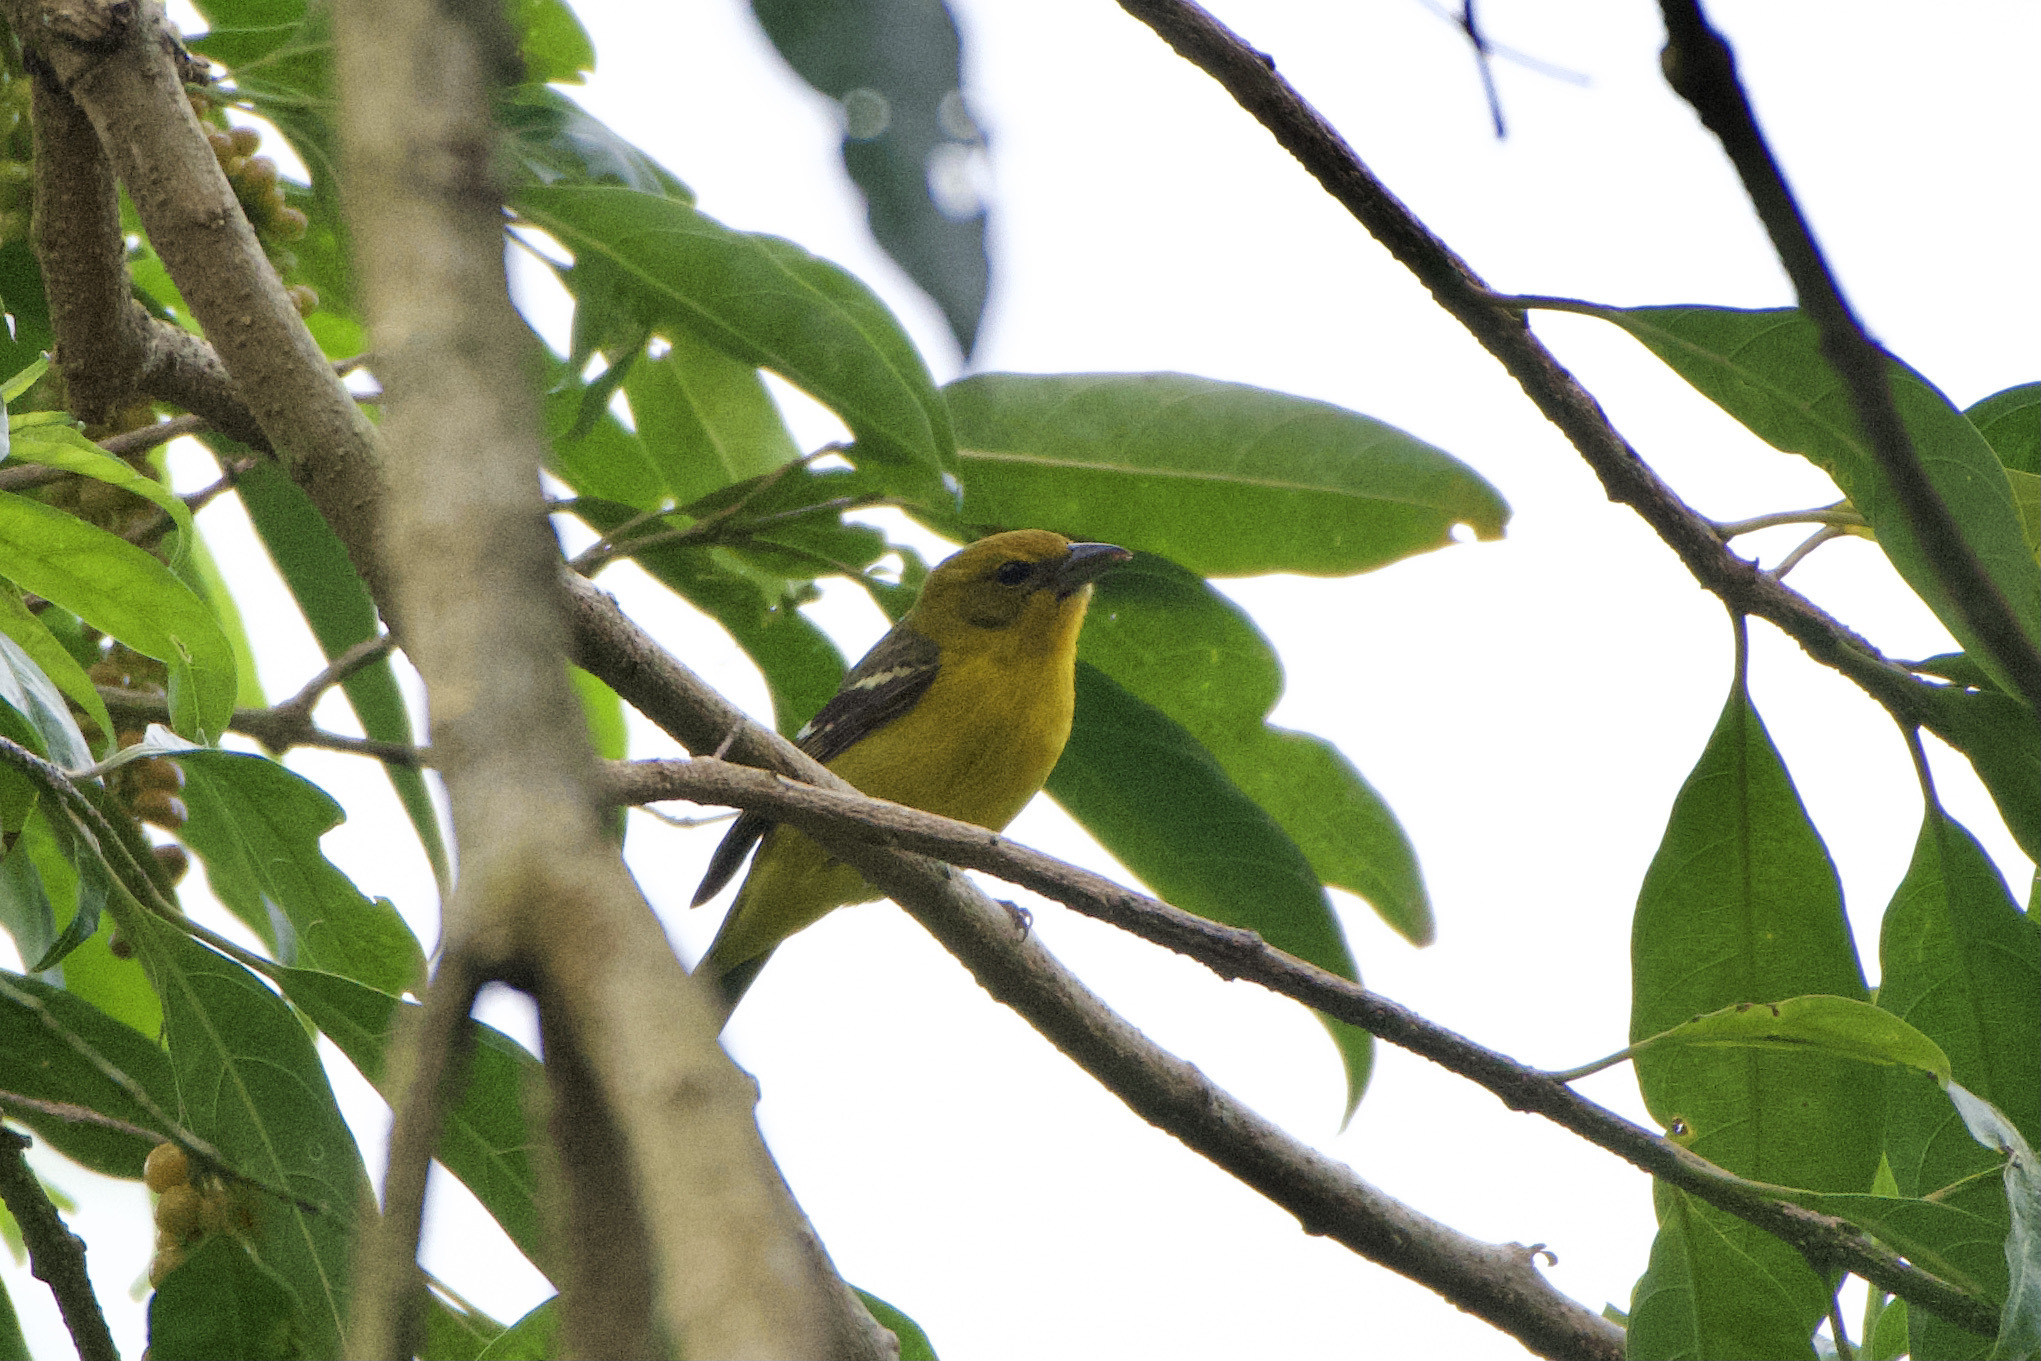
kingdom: Animalia
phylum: Chordata
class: Aves
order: Passeriformes
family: Cardinalidae
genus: Piranga
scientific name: Piranga bidentata
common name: Flame-colored tanager
